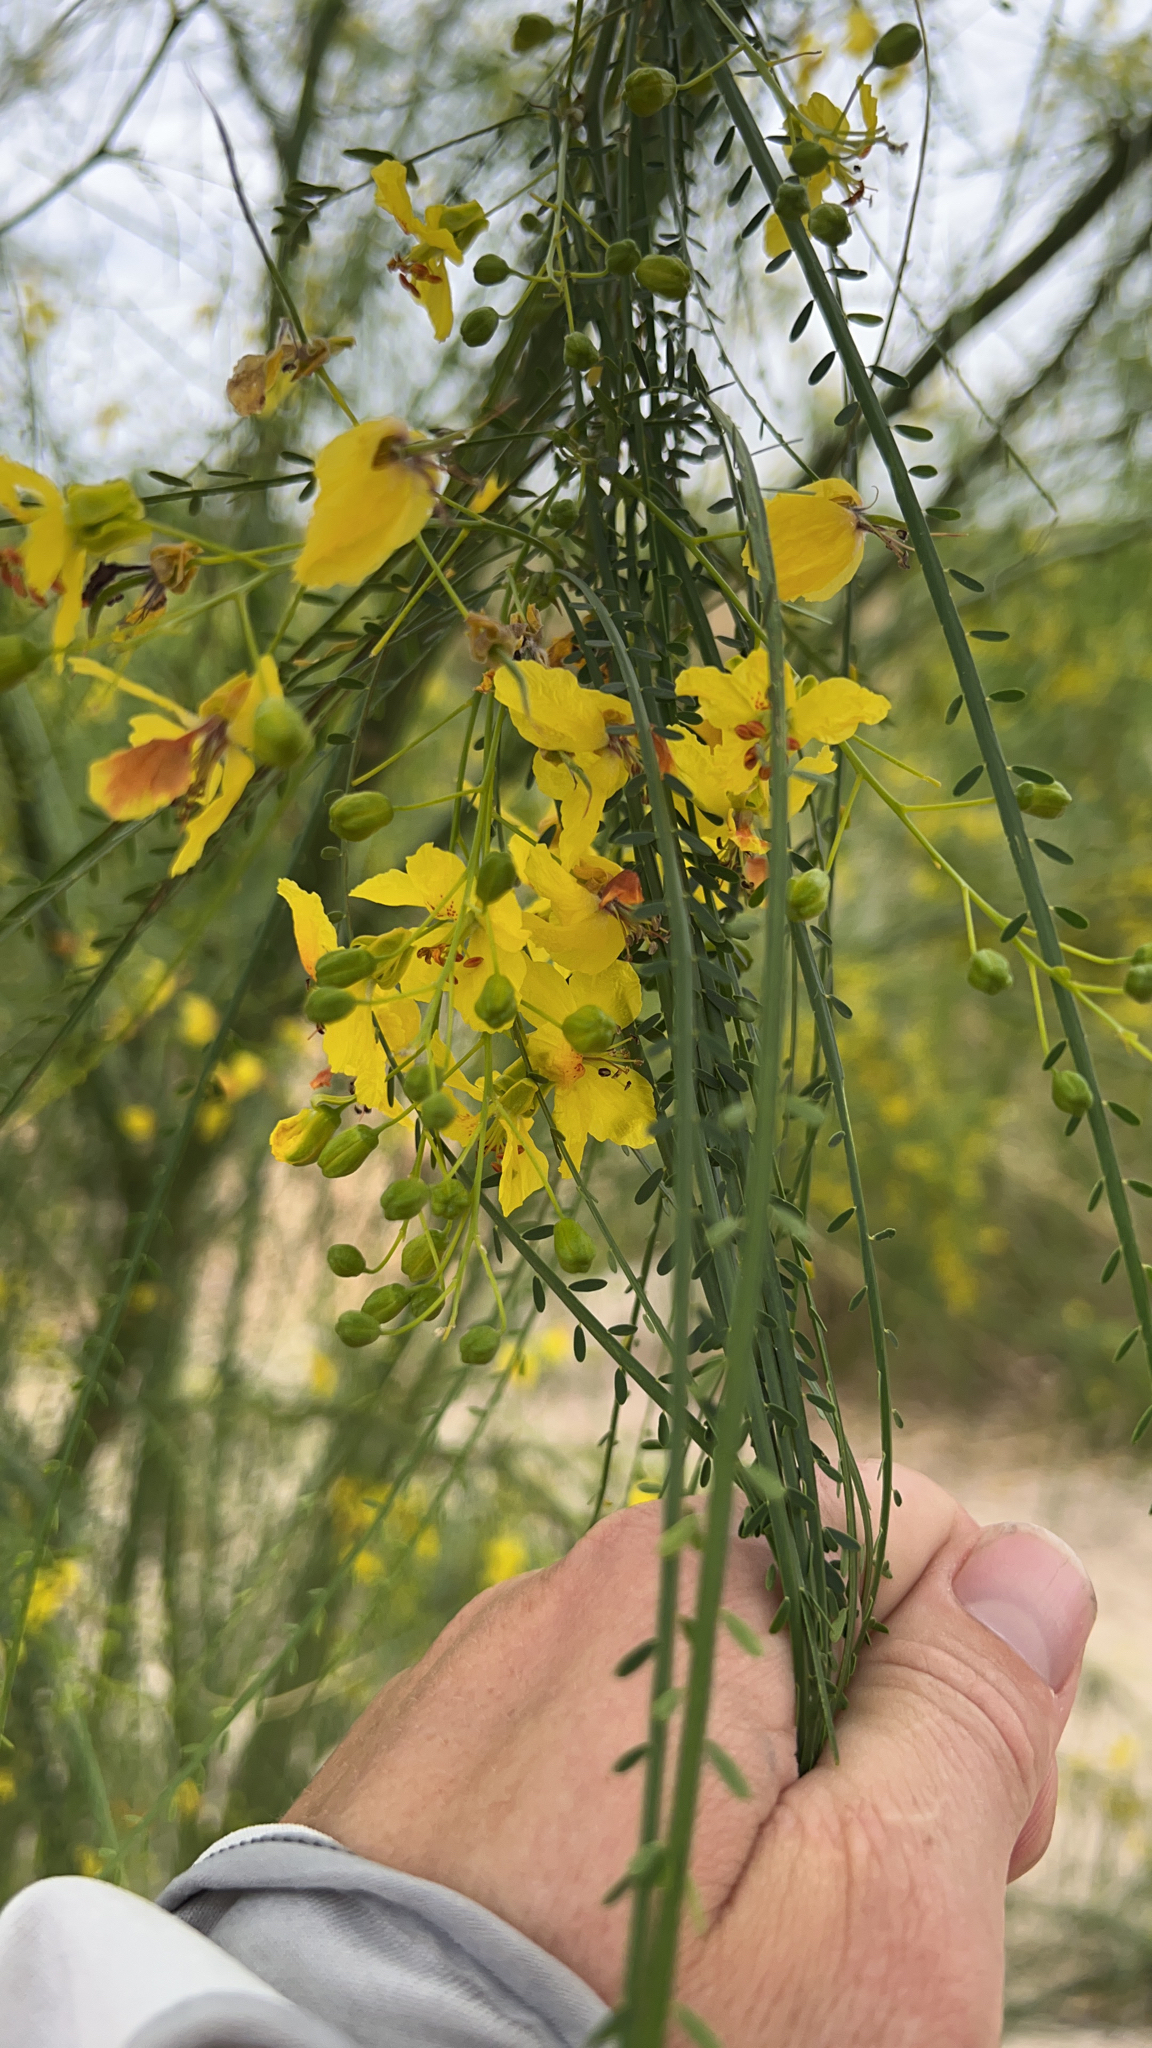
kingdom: Plantae
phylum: Tracheophyta
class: Magnoliopsida
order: Fabales
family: Fabaceae
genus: Parkinsonia
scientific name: Parkinsonia aculeata
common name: Jerusalem thorn
